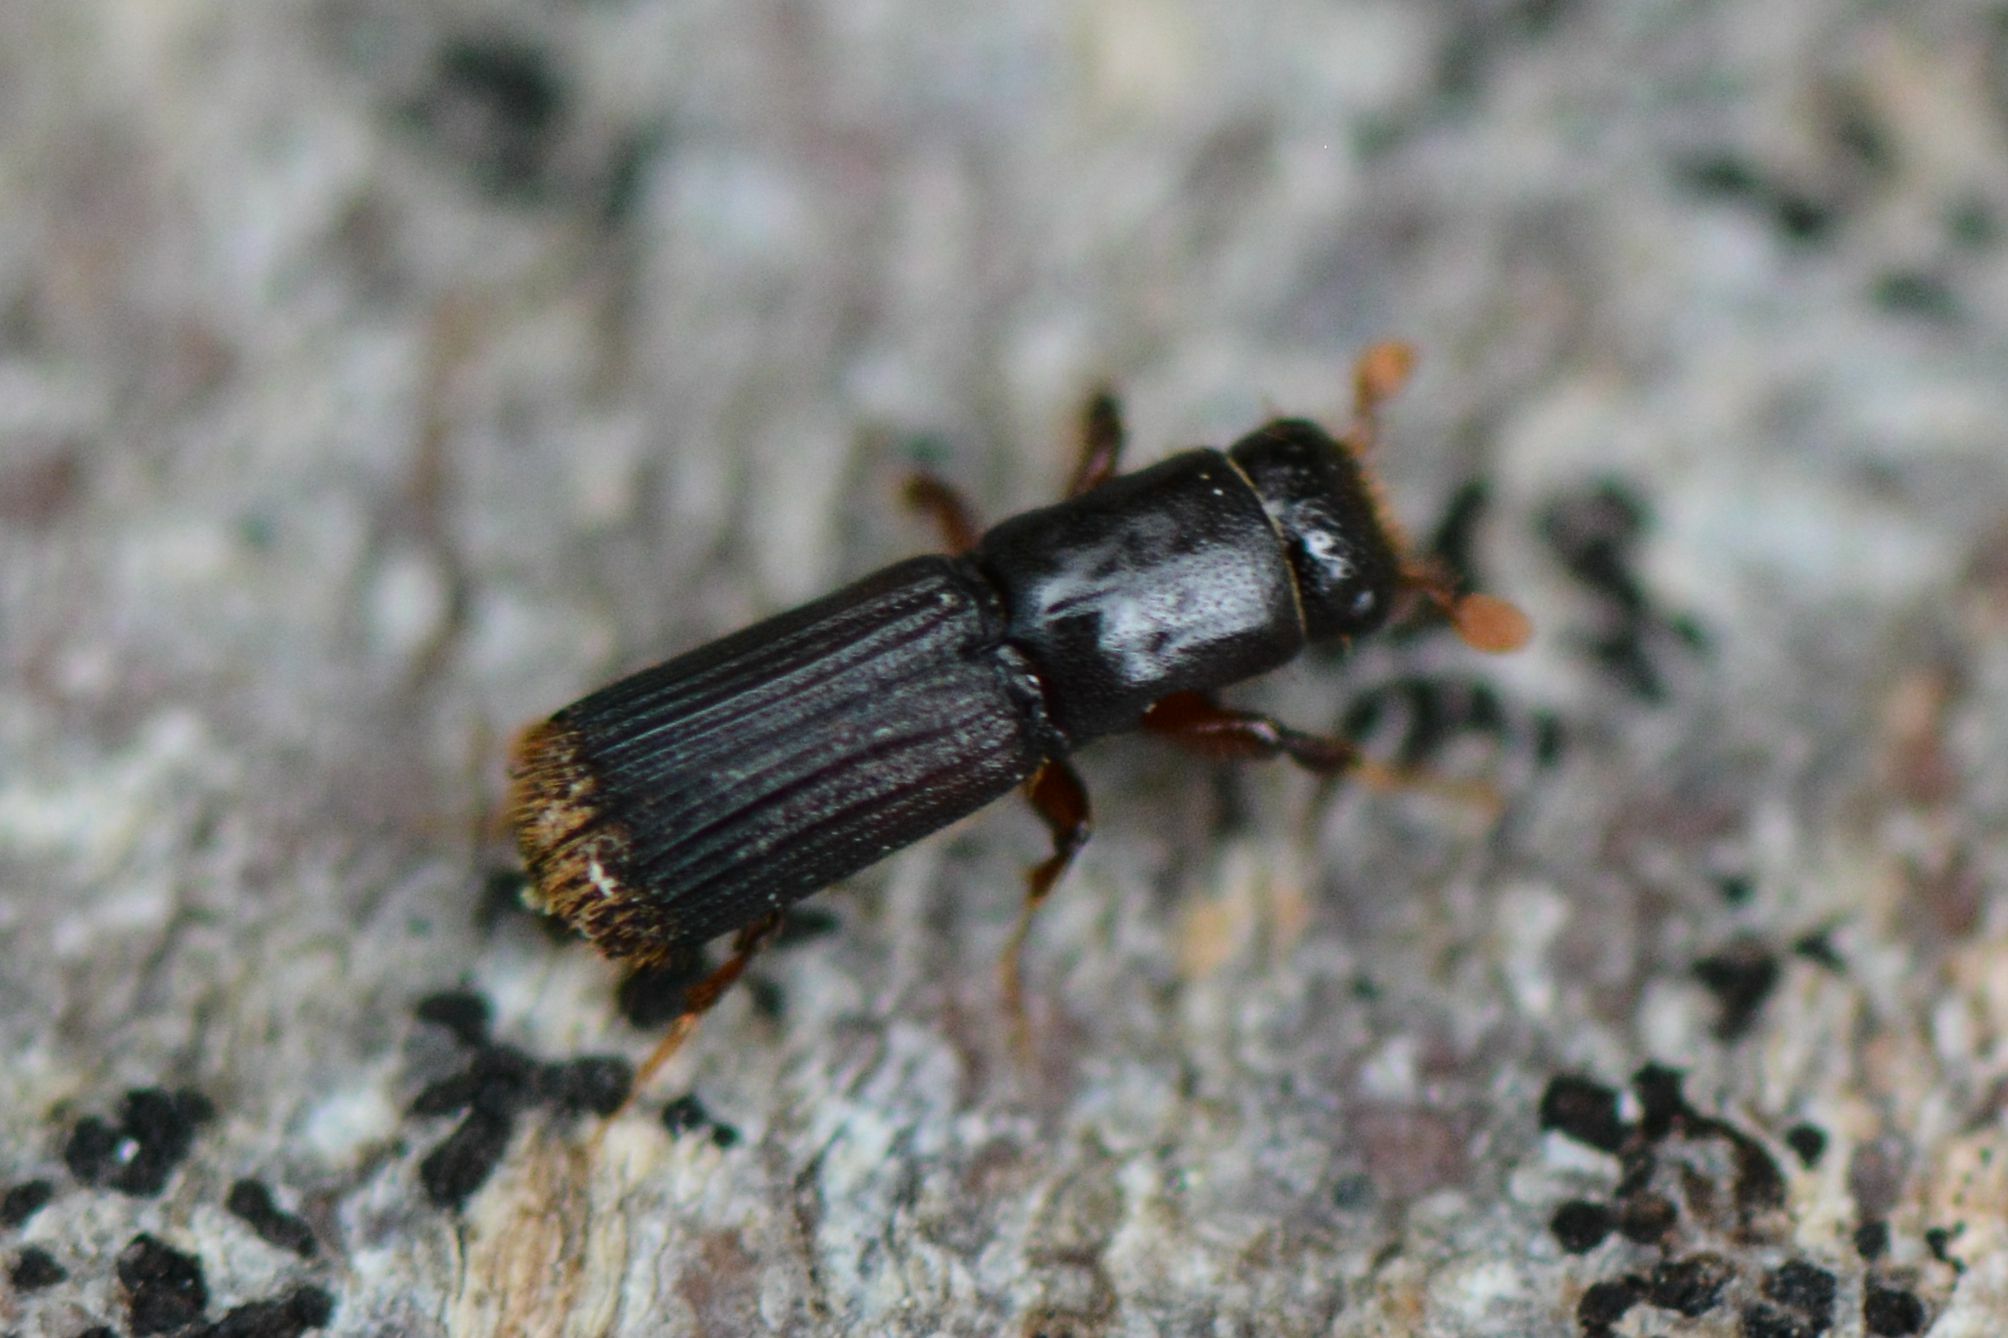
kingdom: Animalia
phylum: Arthropoda
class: Insecta
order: Coleoptera
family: Curculionidae
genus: Platypus
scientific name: Platypus cylindrus
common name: Pinhole borer
